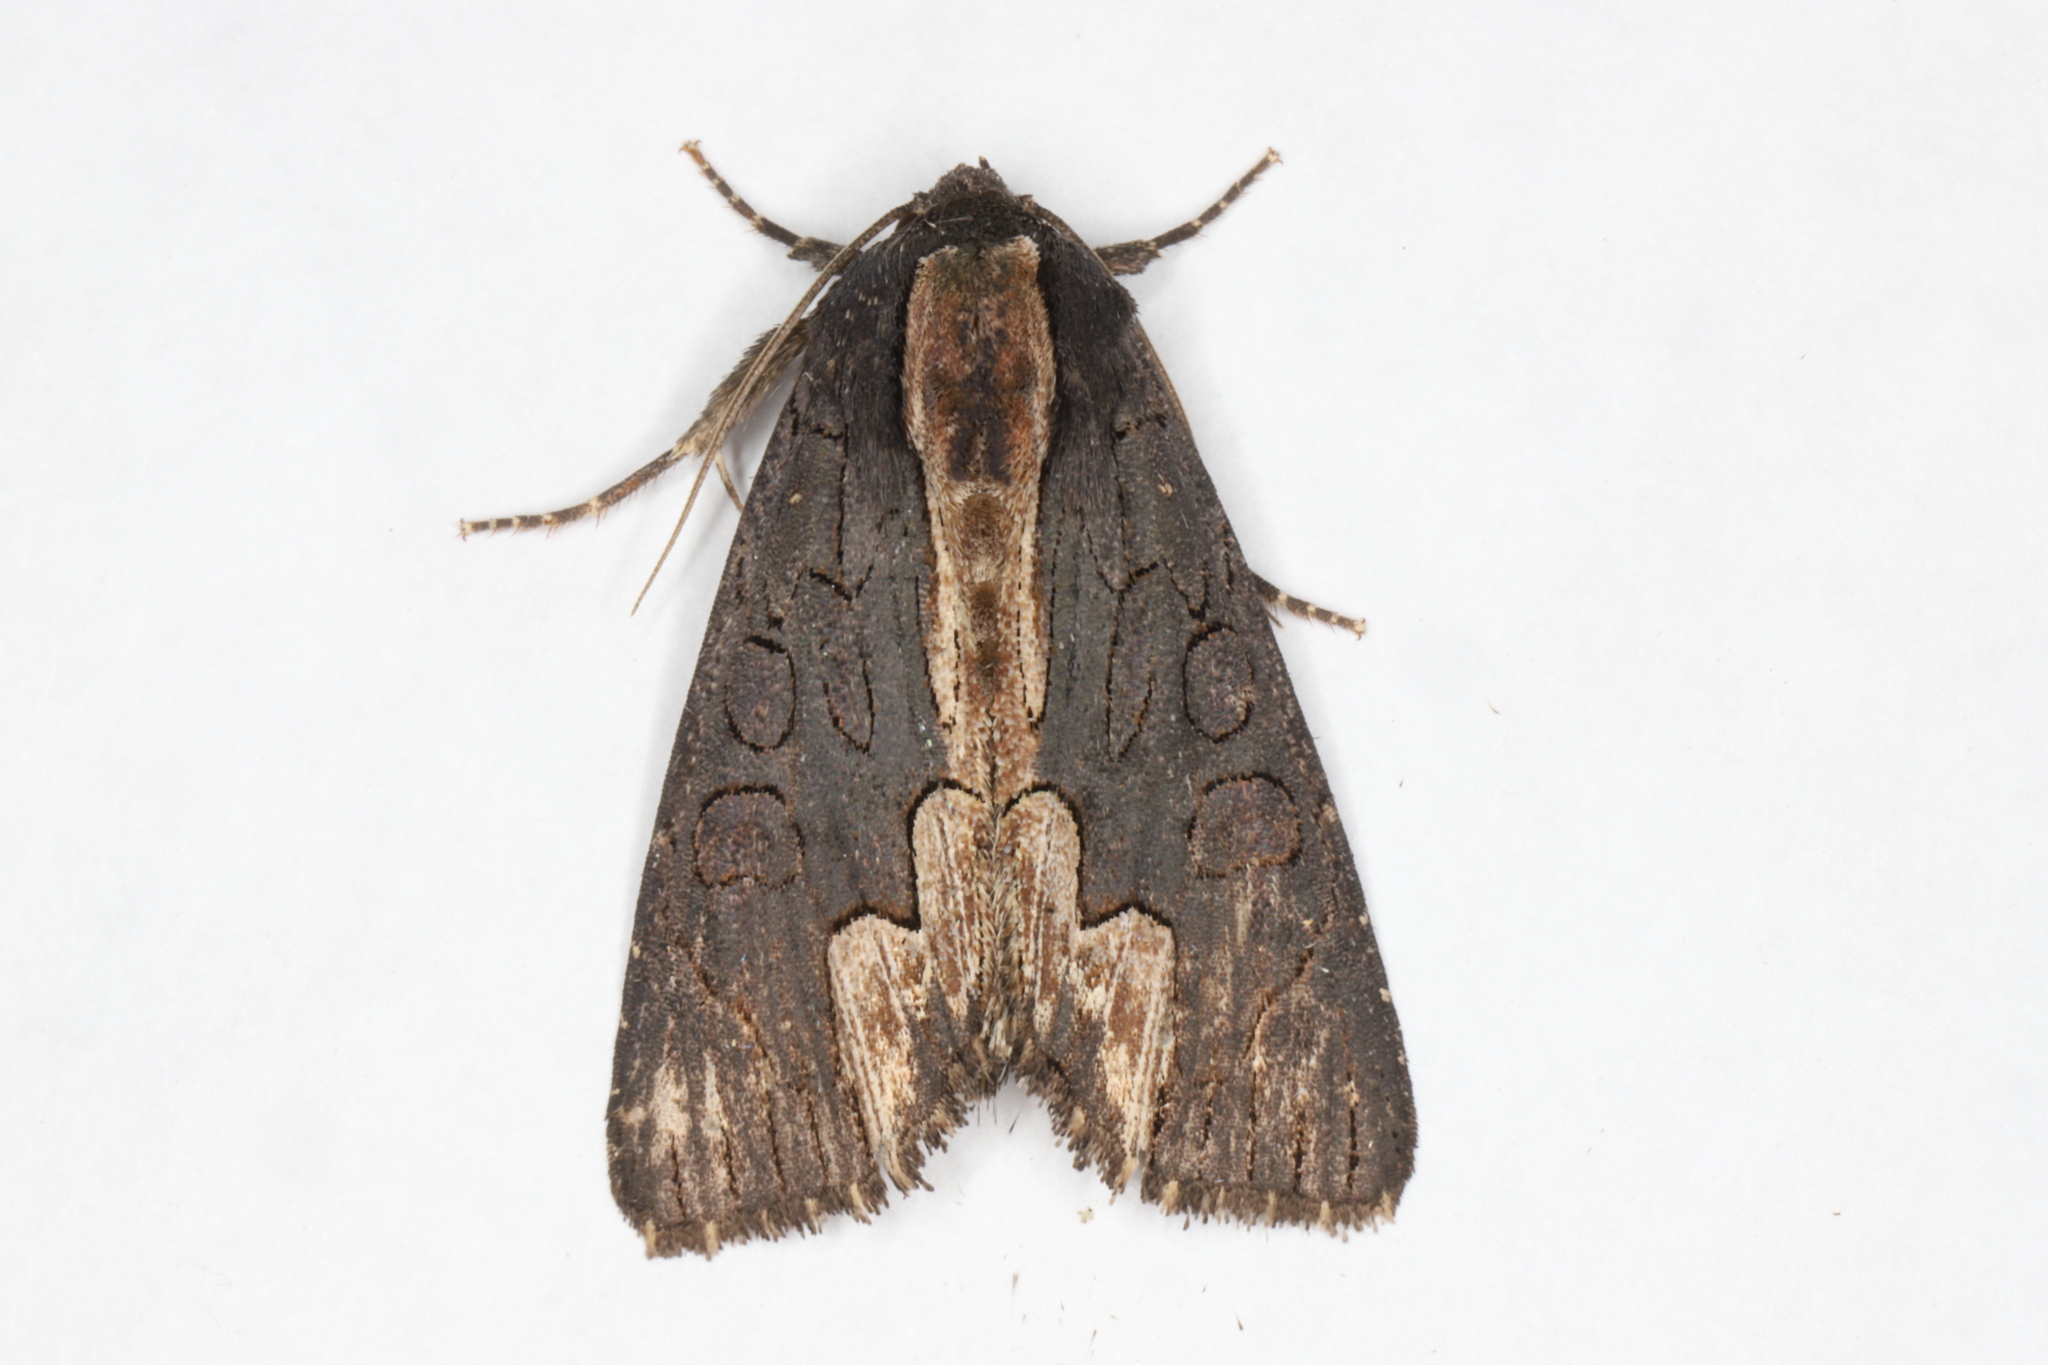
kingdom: Animalia
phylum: Arthropoda
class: Insecta
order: Lepidoptera
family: Noctuidae
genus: Dypterygia
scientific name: Dypterygia rozmani
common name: American bird's-wing
